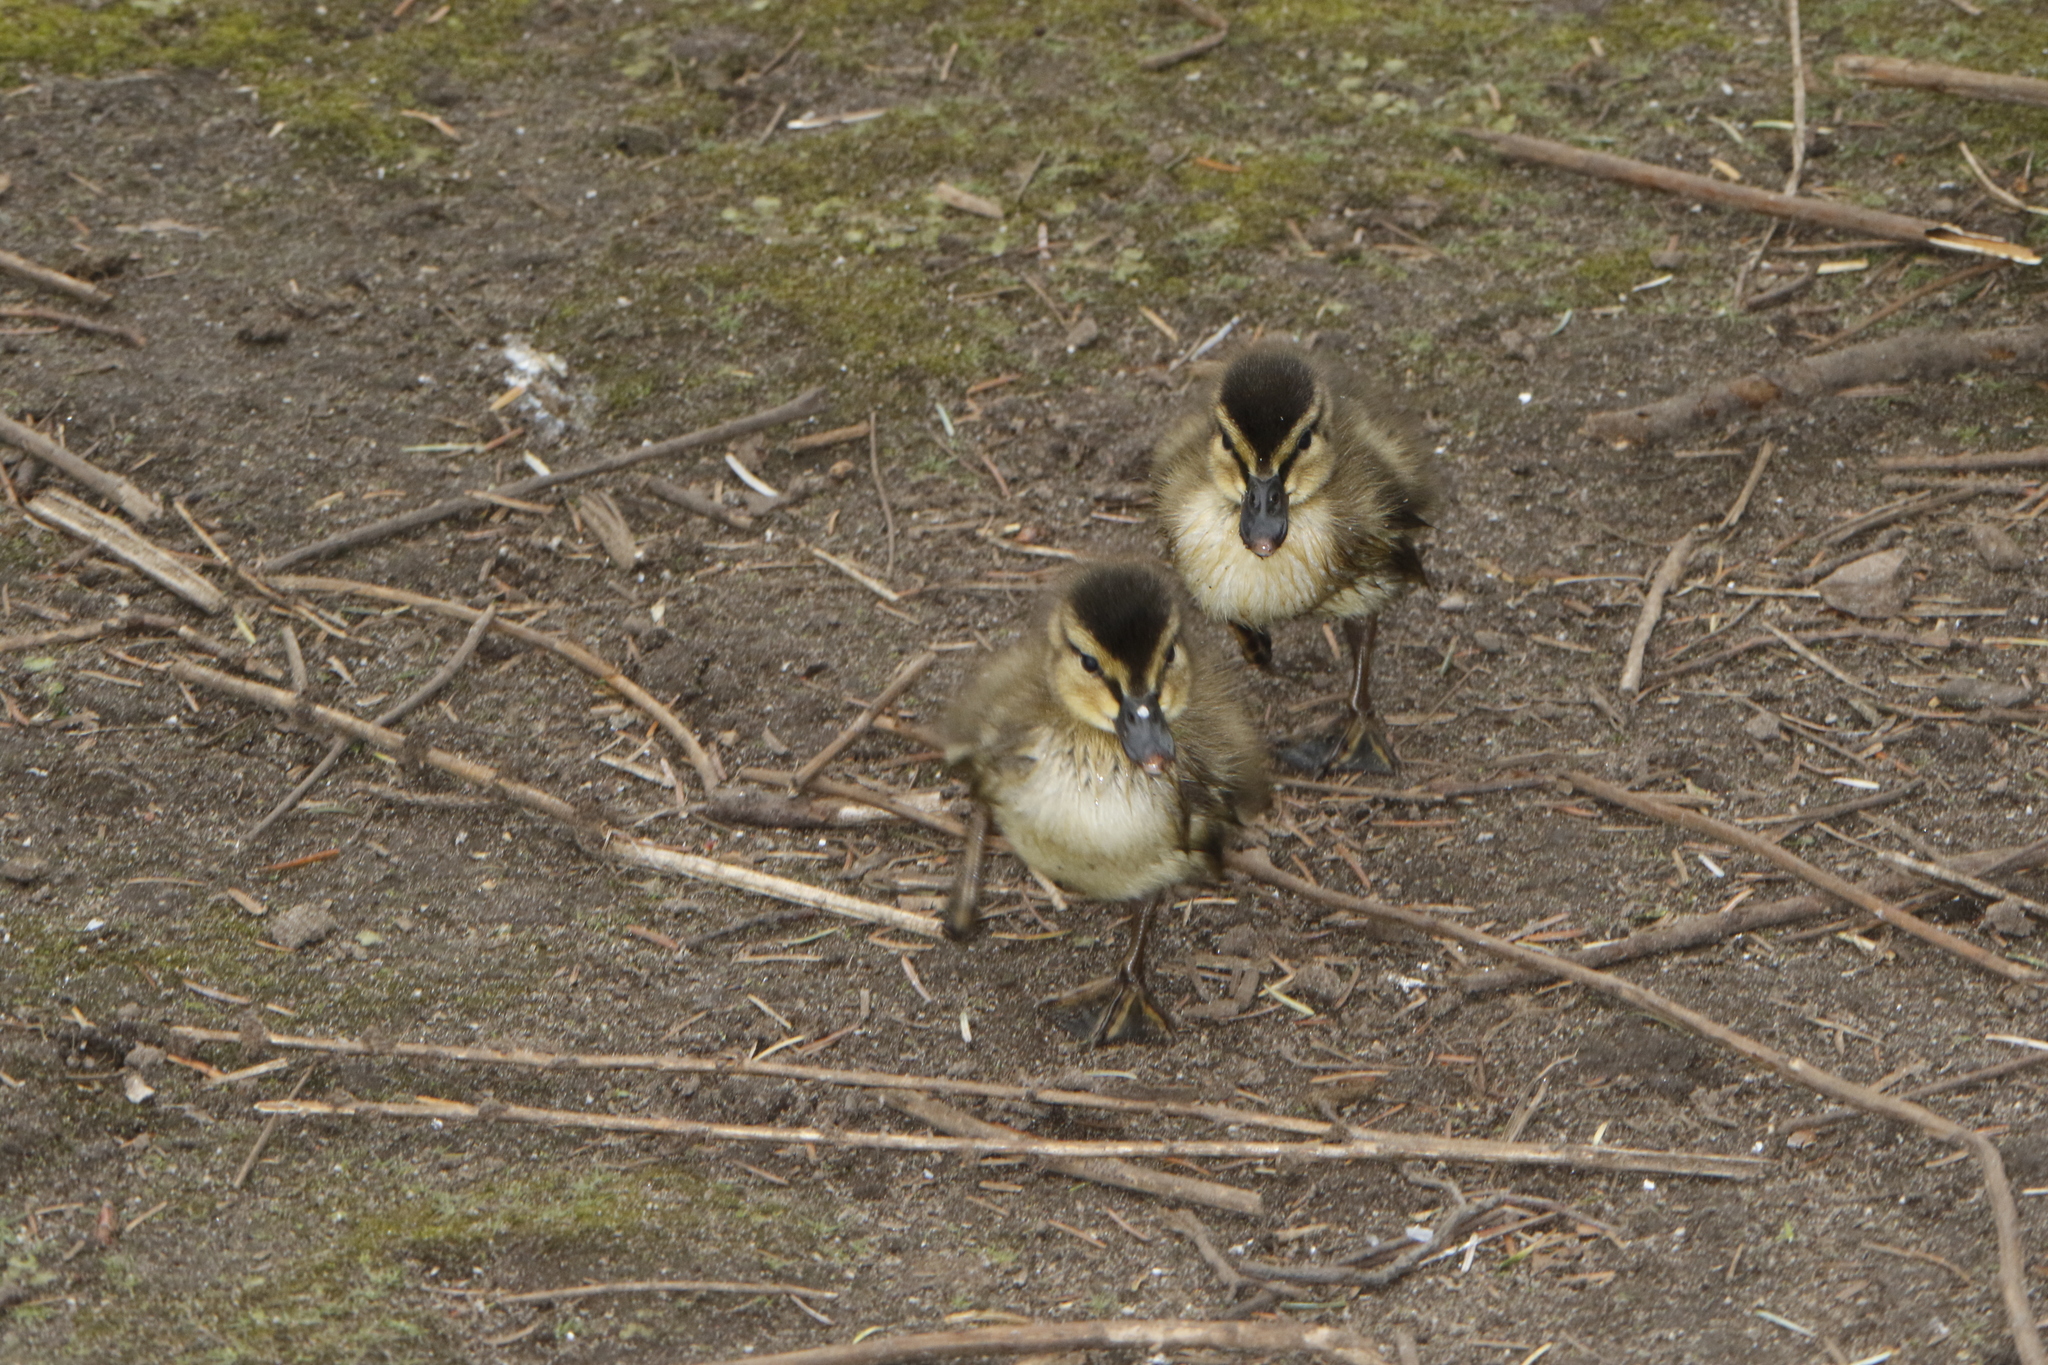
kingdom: Animalia
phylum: Chordata
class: Aves
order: Anseriformes
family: Anatidae
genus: Anas
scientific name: Anas platyrhynchos
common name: Mallard
